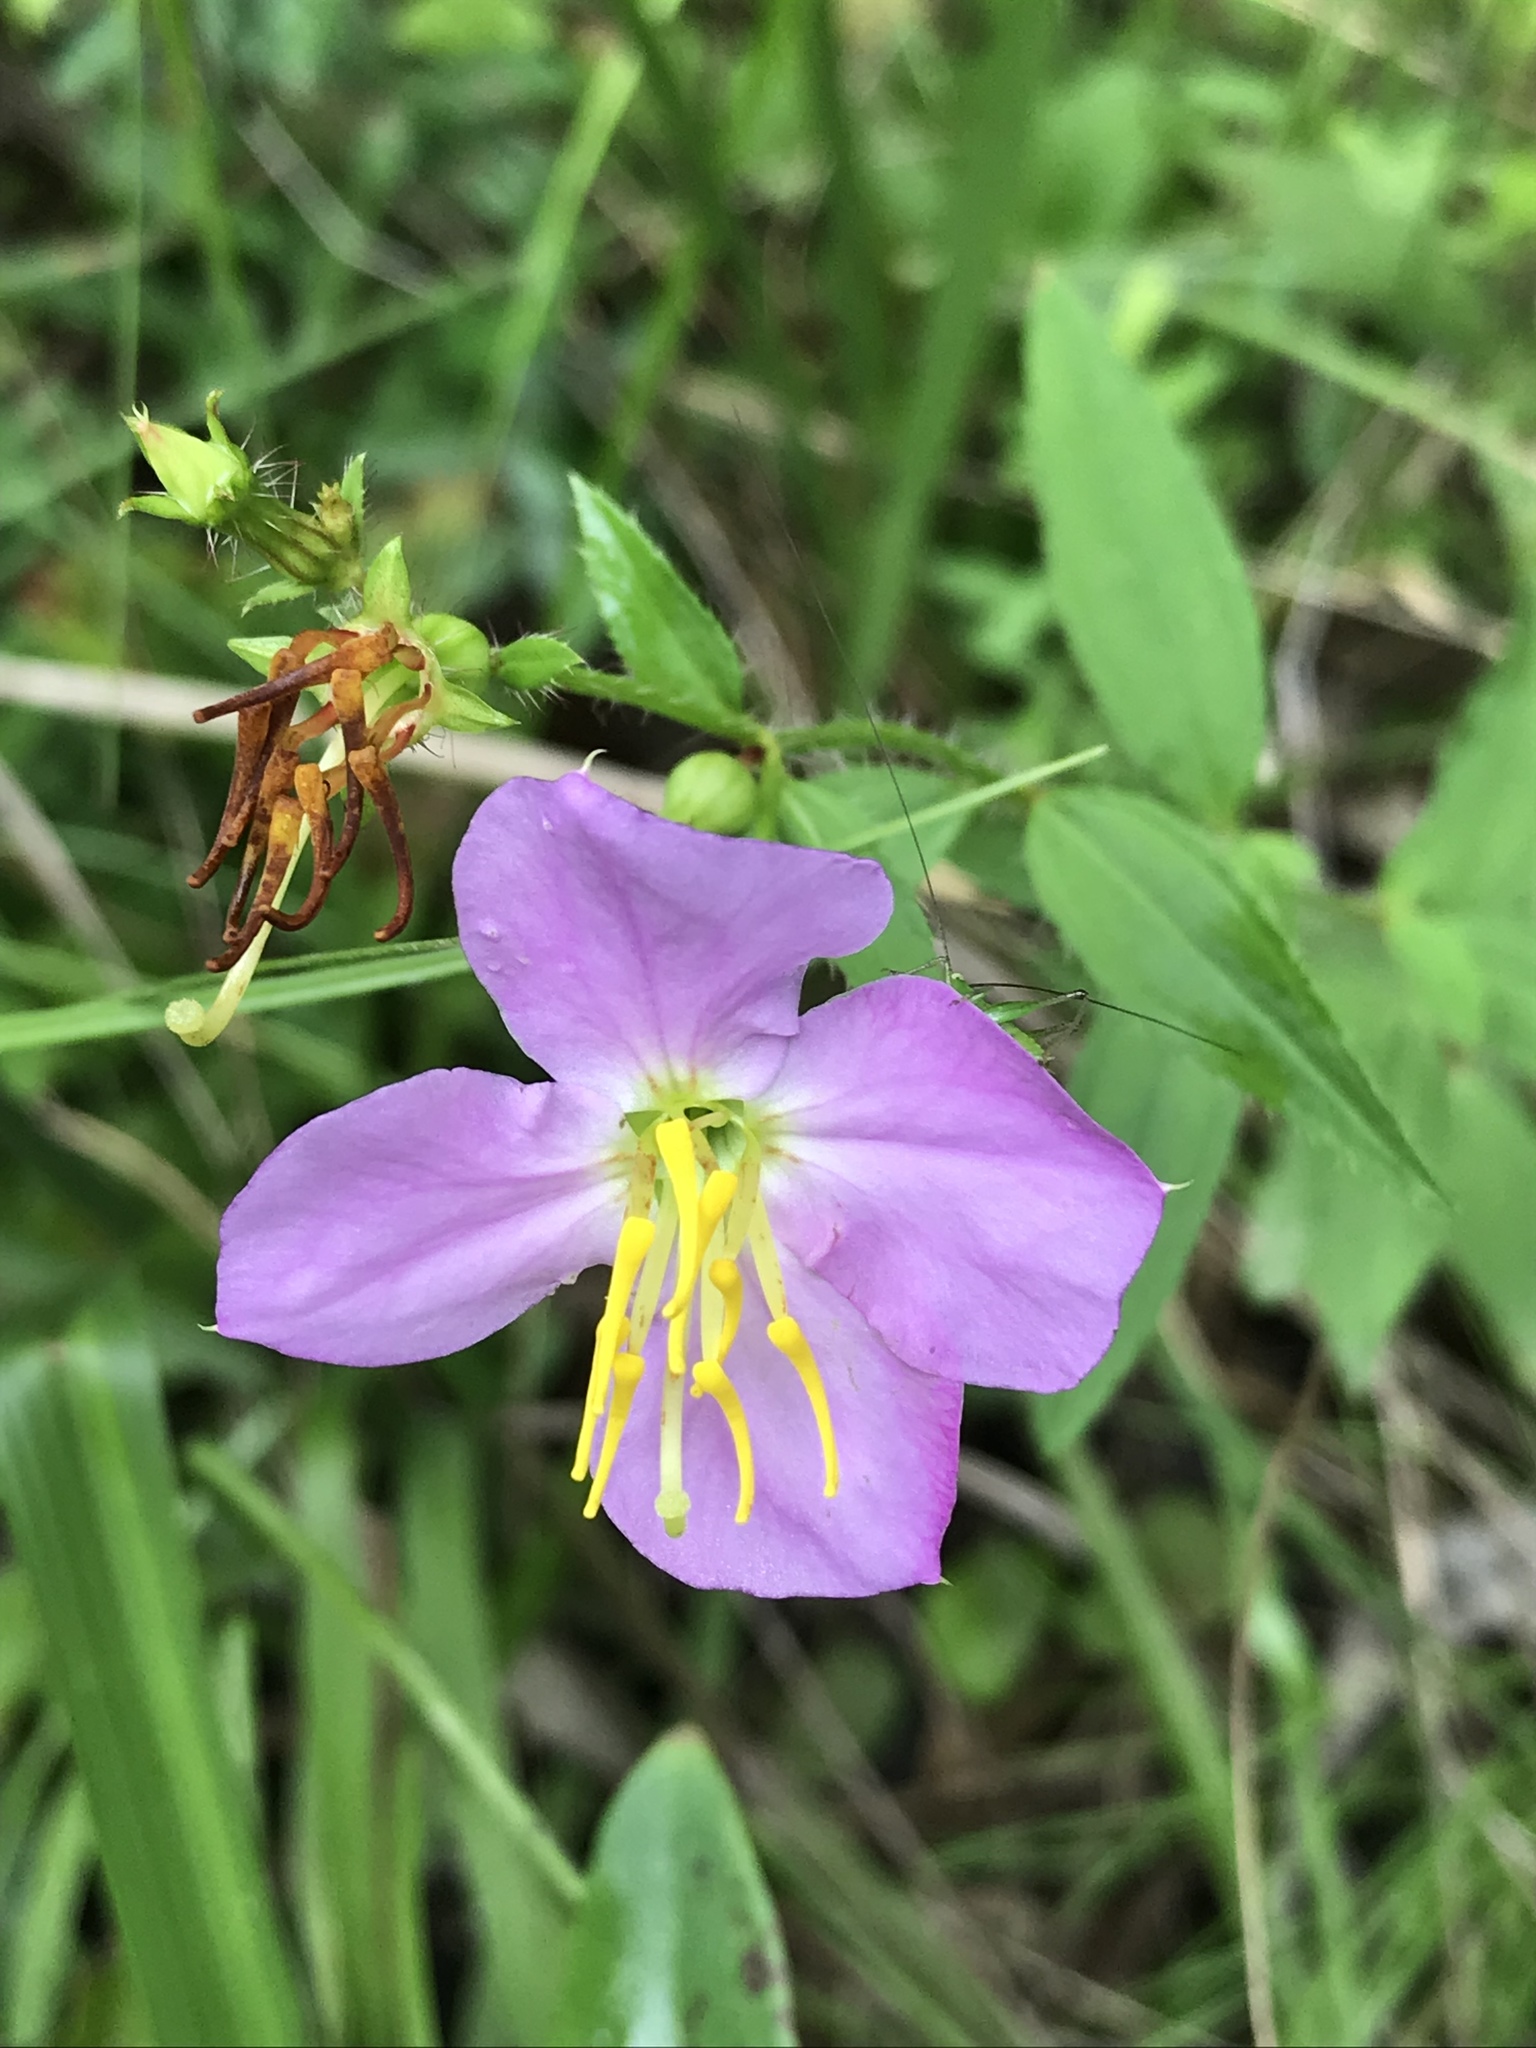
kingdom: Plantae
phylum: Tracheophyta
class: Magnoliopsida
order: Myrtales
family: Melastomataceae
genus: Rhexia
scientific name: Rhexia mariana
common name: Dull meadow-pitcher
